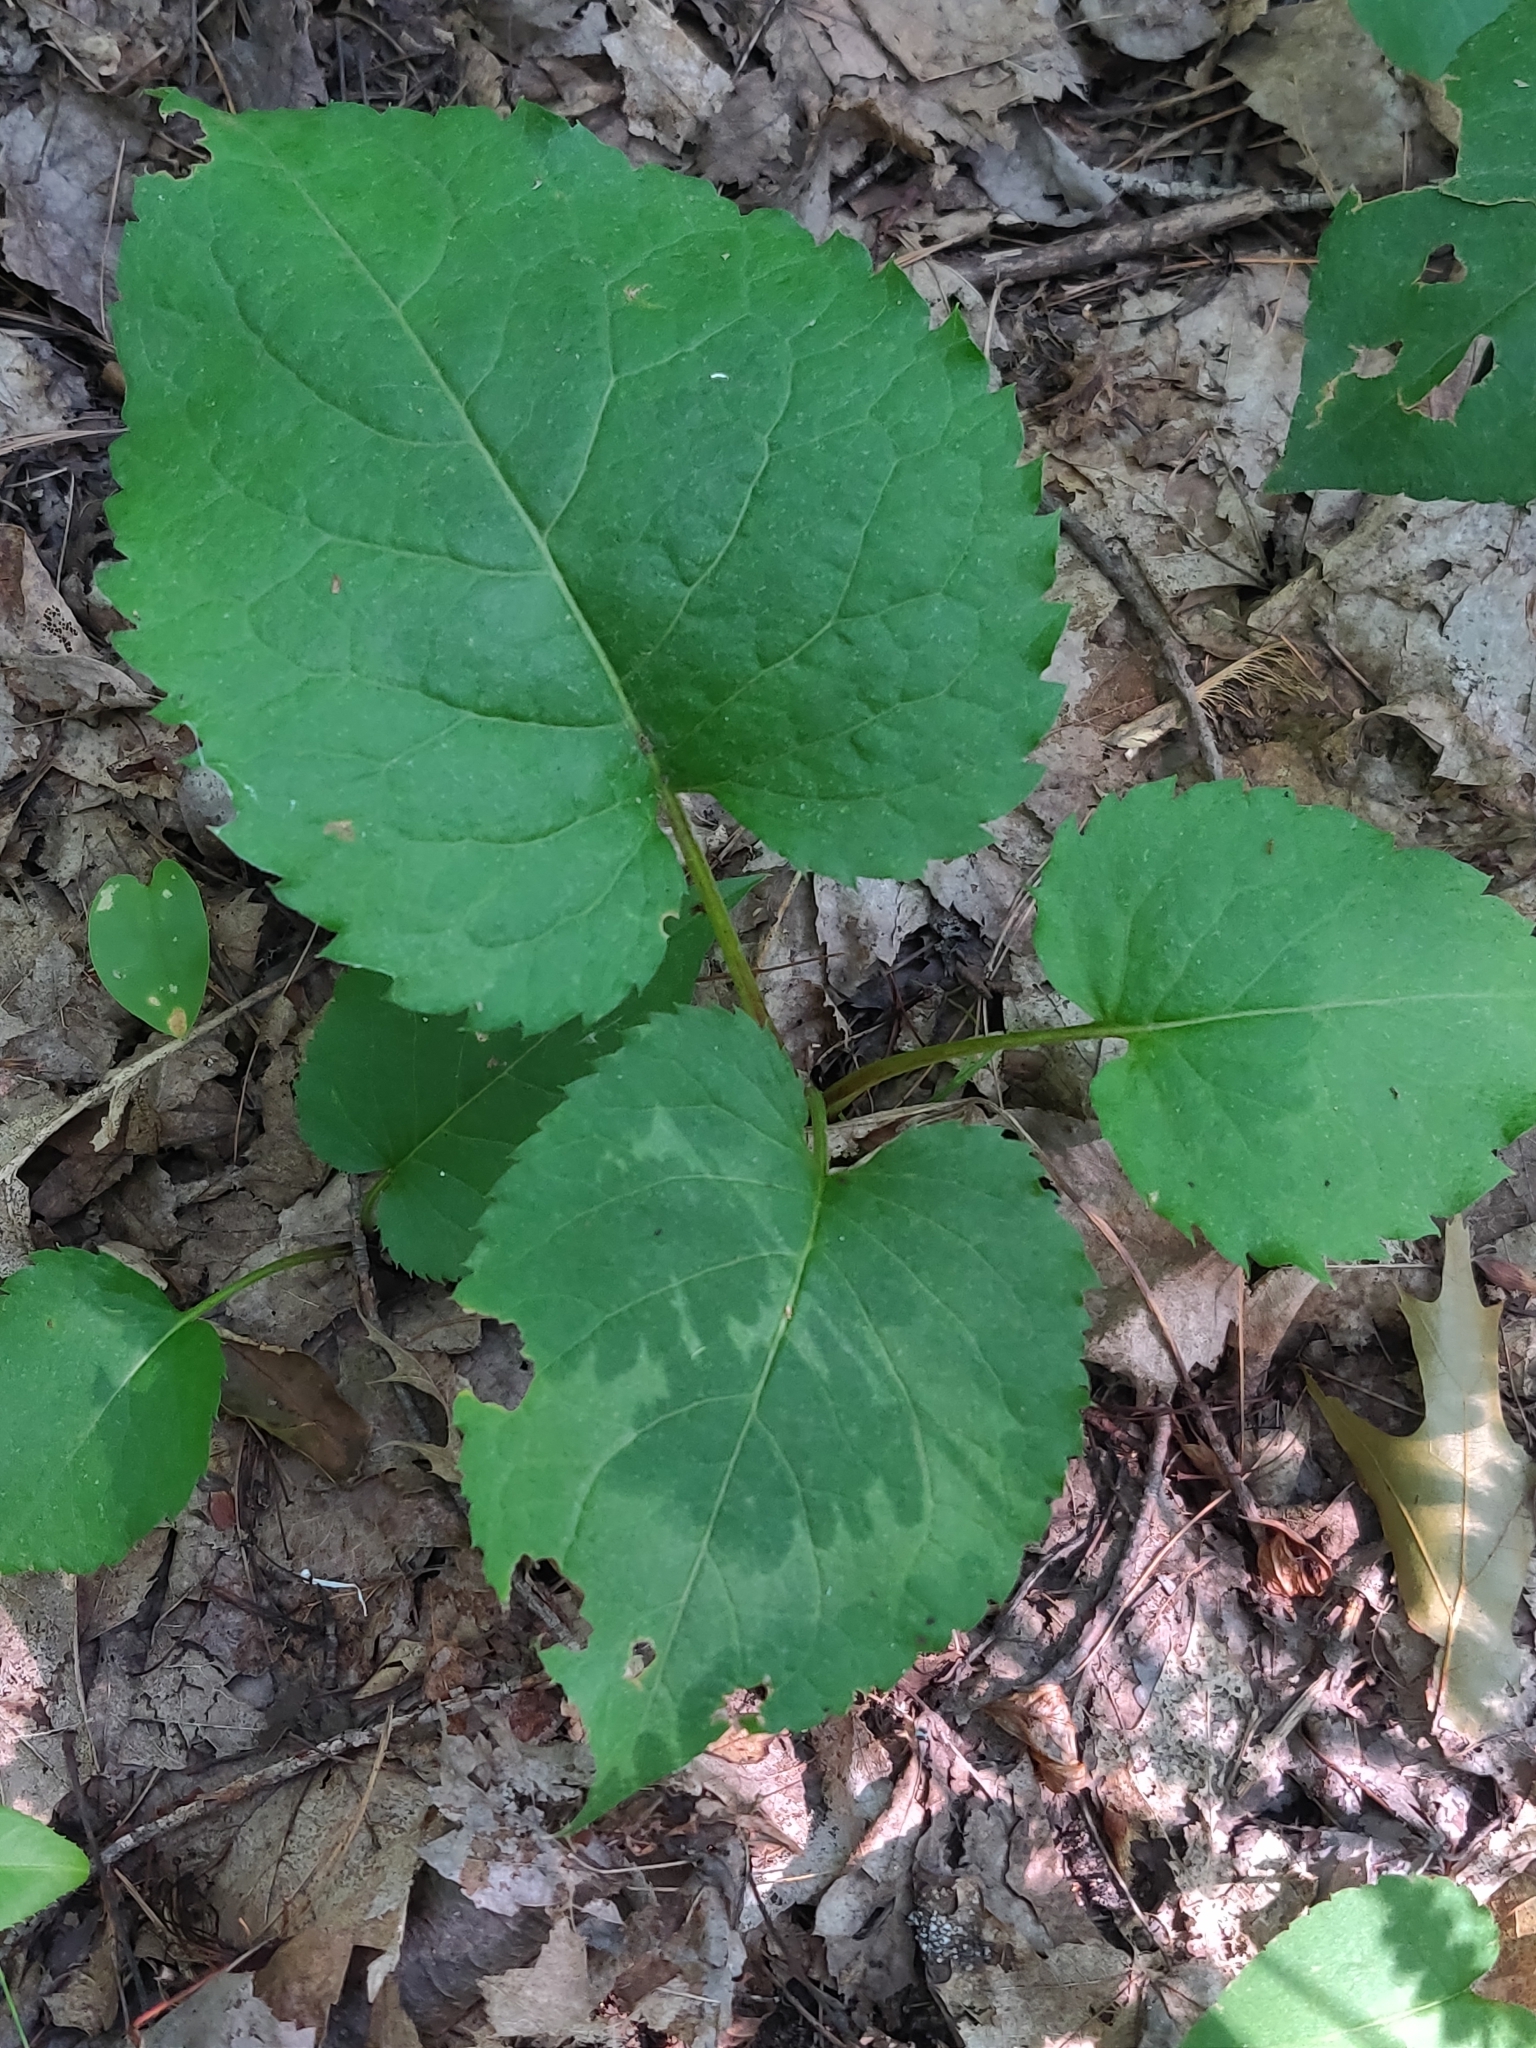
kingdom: Plantae
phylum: Tracheophyta
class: Magnoliopsida
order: Asterales
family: Asteraceae
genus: Eurybia
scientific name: Eurybia macrophylla
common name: Big-leaved aster
